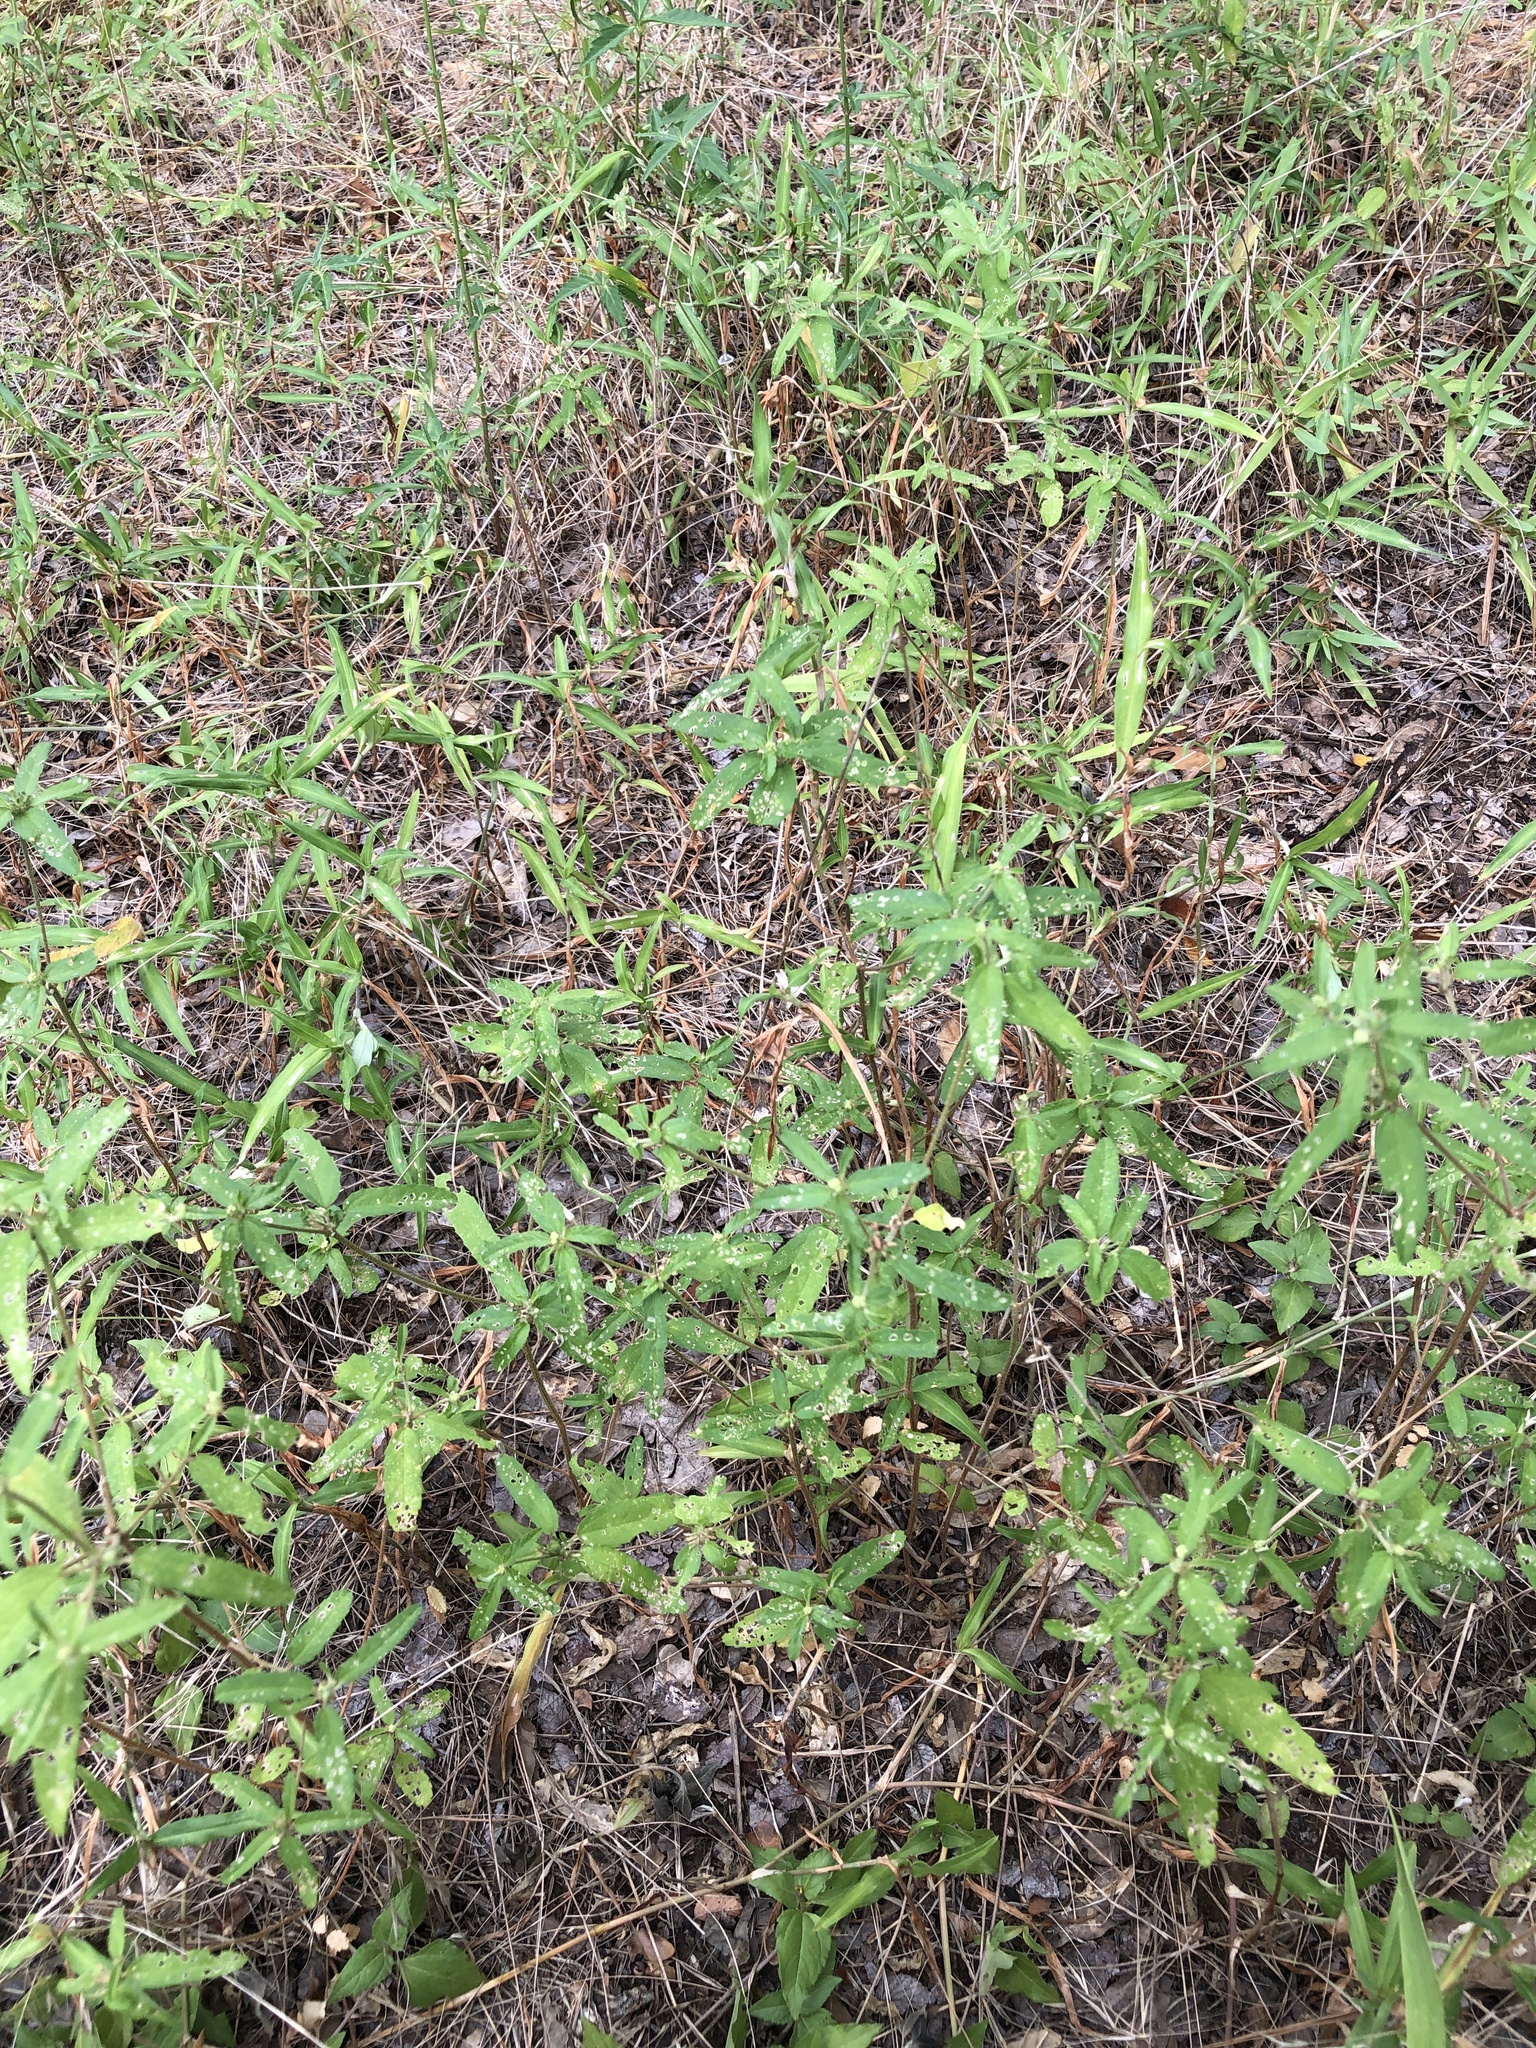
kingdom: Plantae
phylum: Tracheophyta
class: Magnoliopsida
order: Malpighiales
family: Euphorbiaceae
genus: Croton
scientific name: Croton glandulosus
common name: Tropic croton
